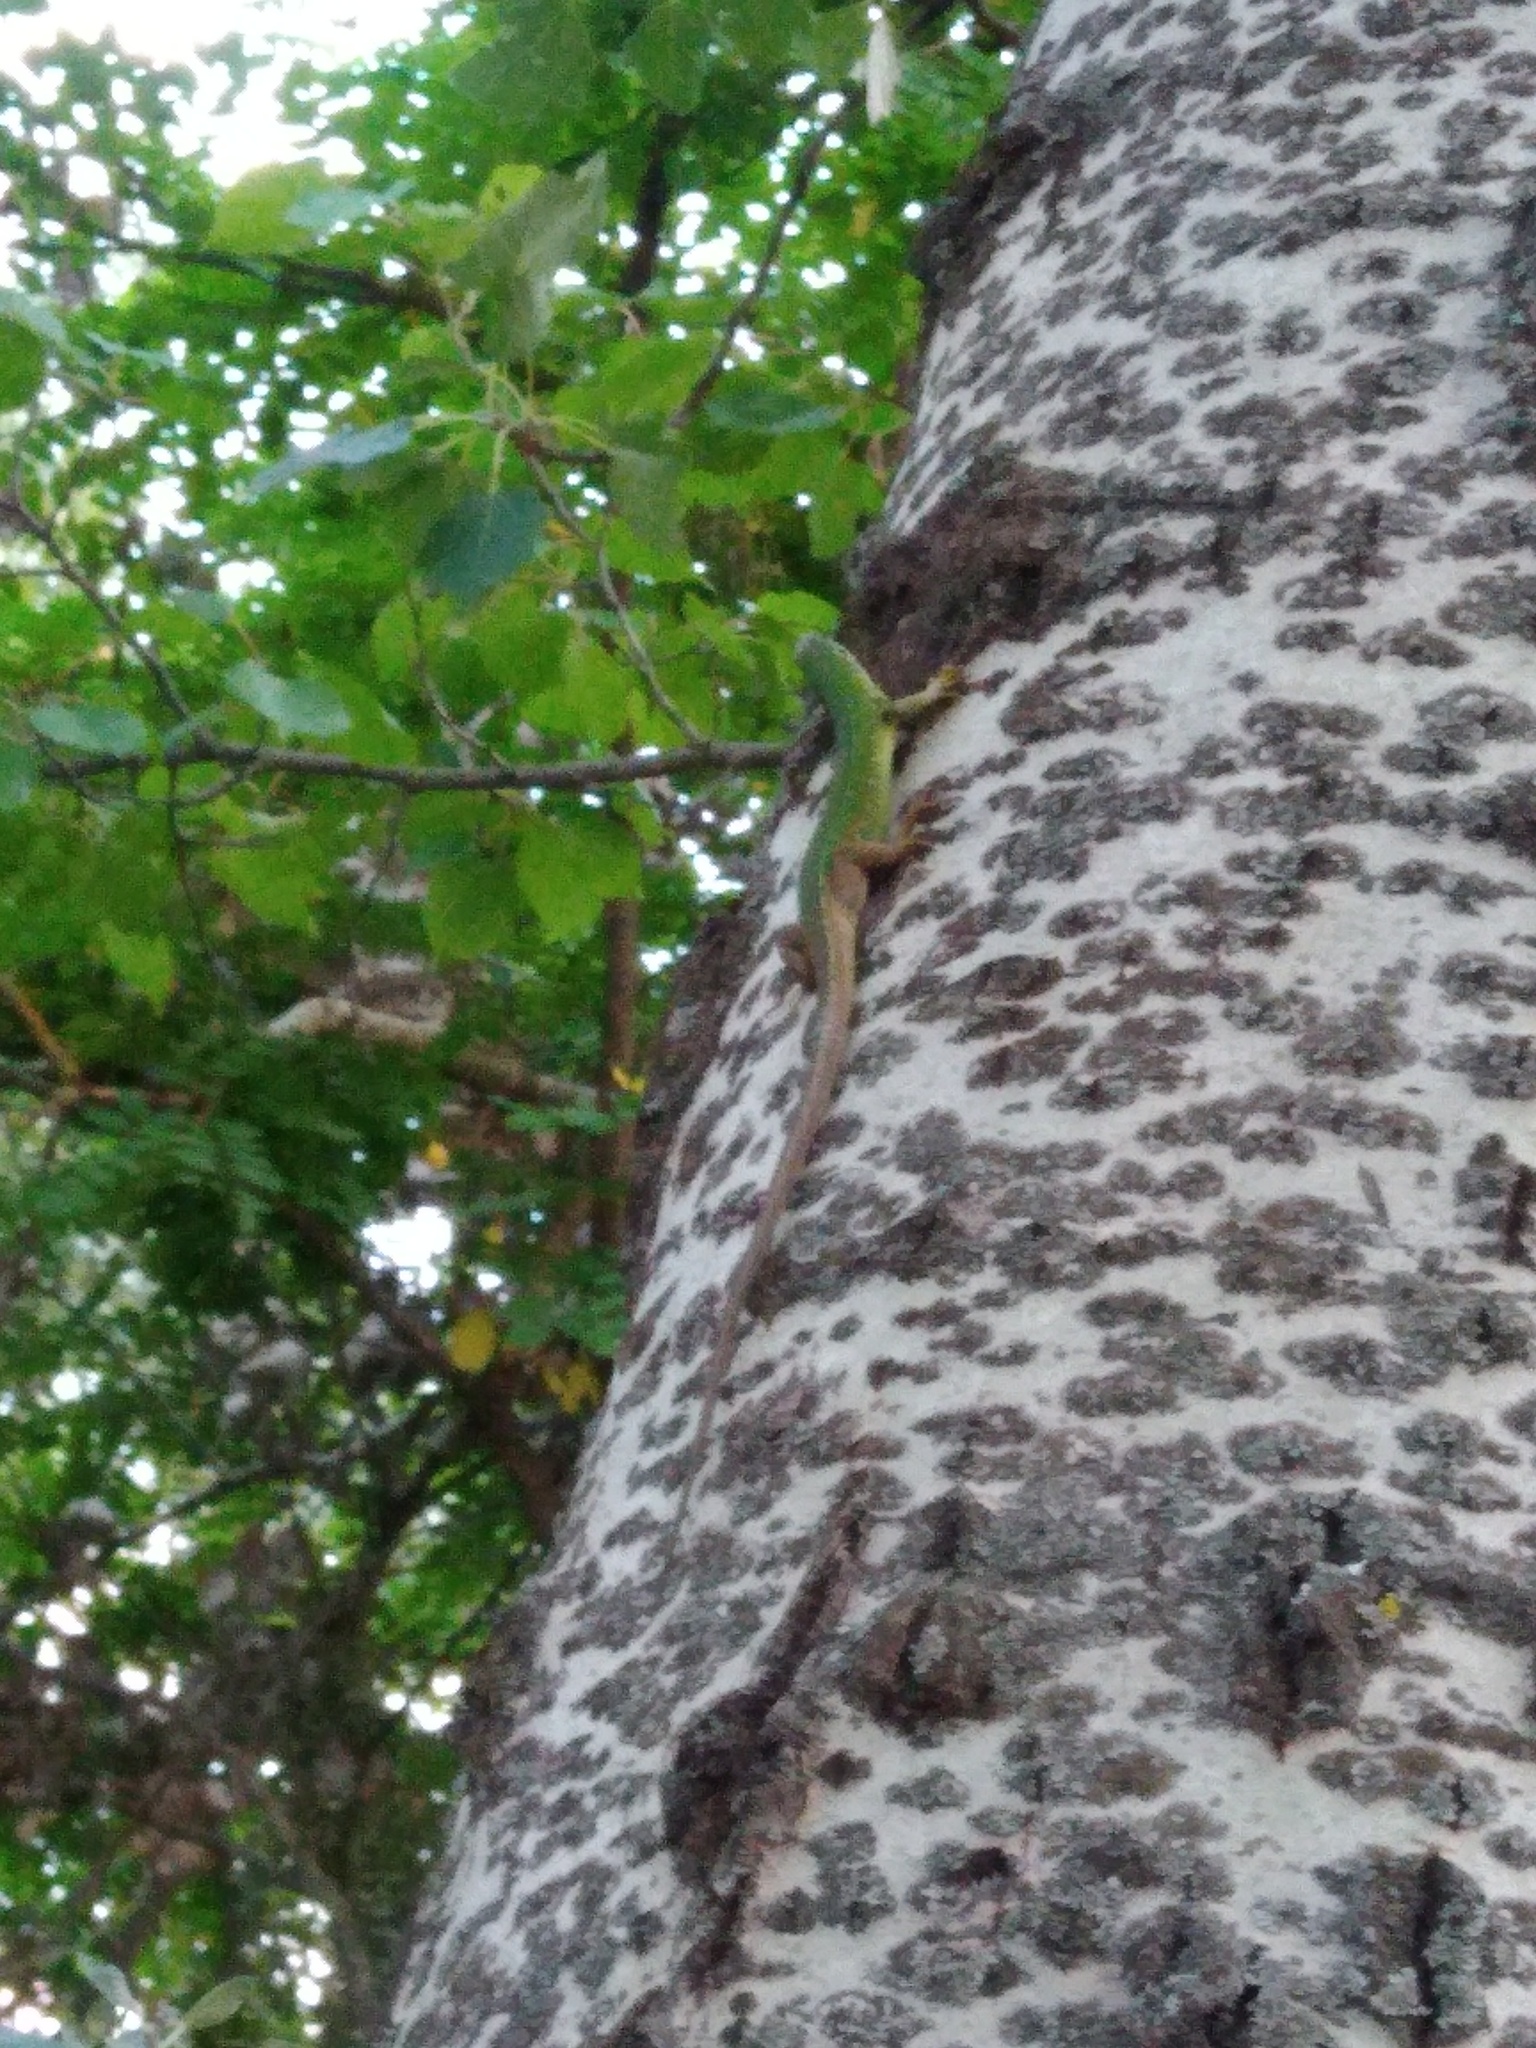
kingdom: Animalia
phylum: Chordata
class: Squamata
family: Lacertidae
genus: Lacerta
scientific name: Lacerta viridis
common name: European green lizard
